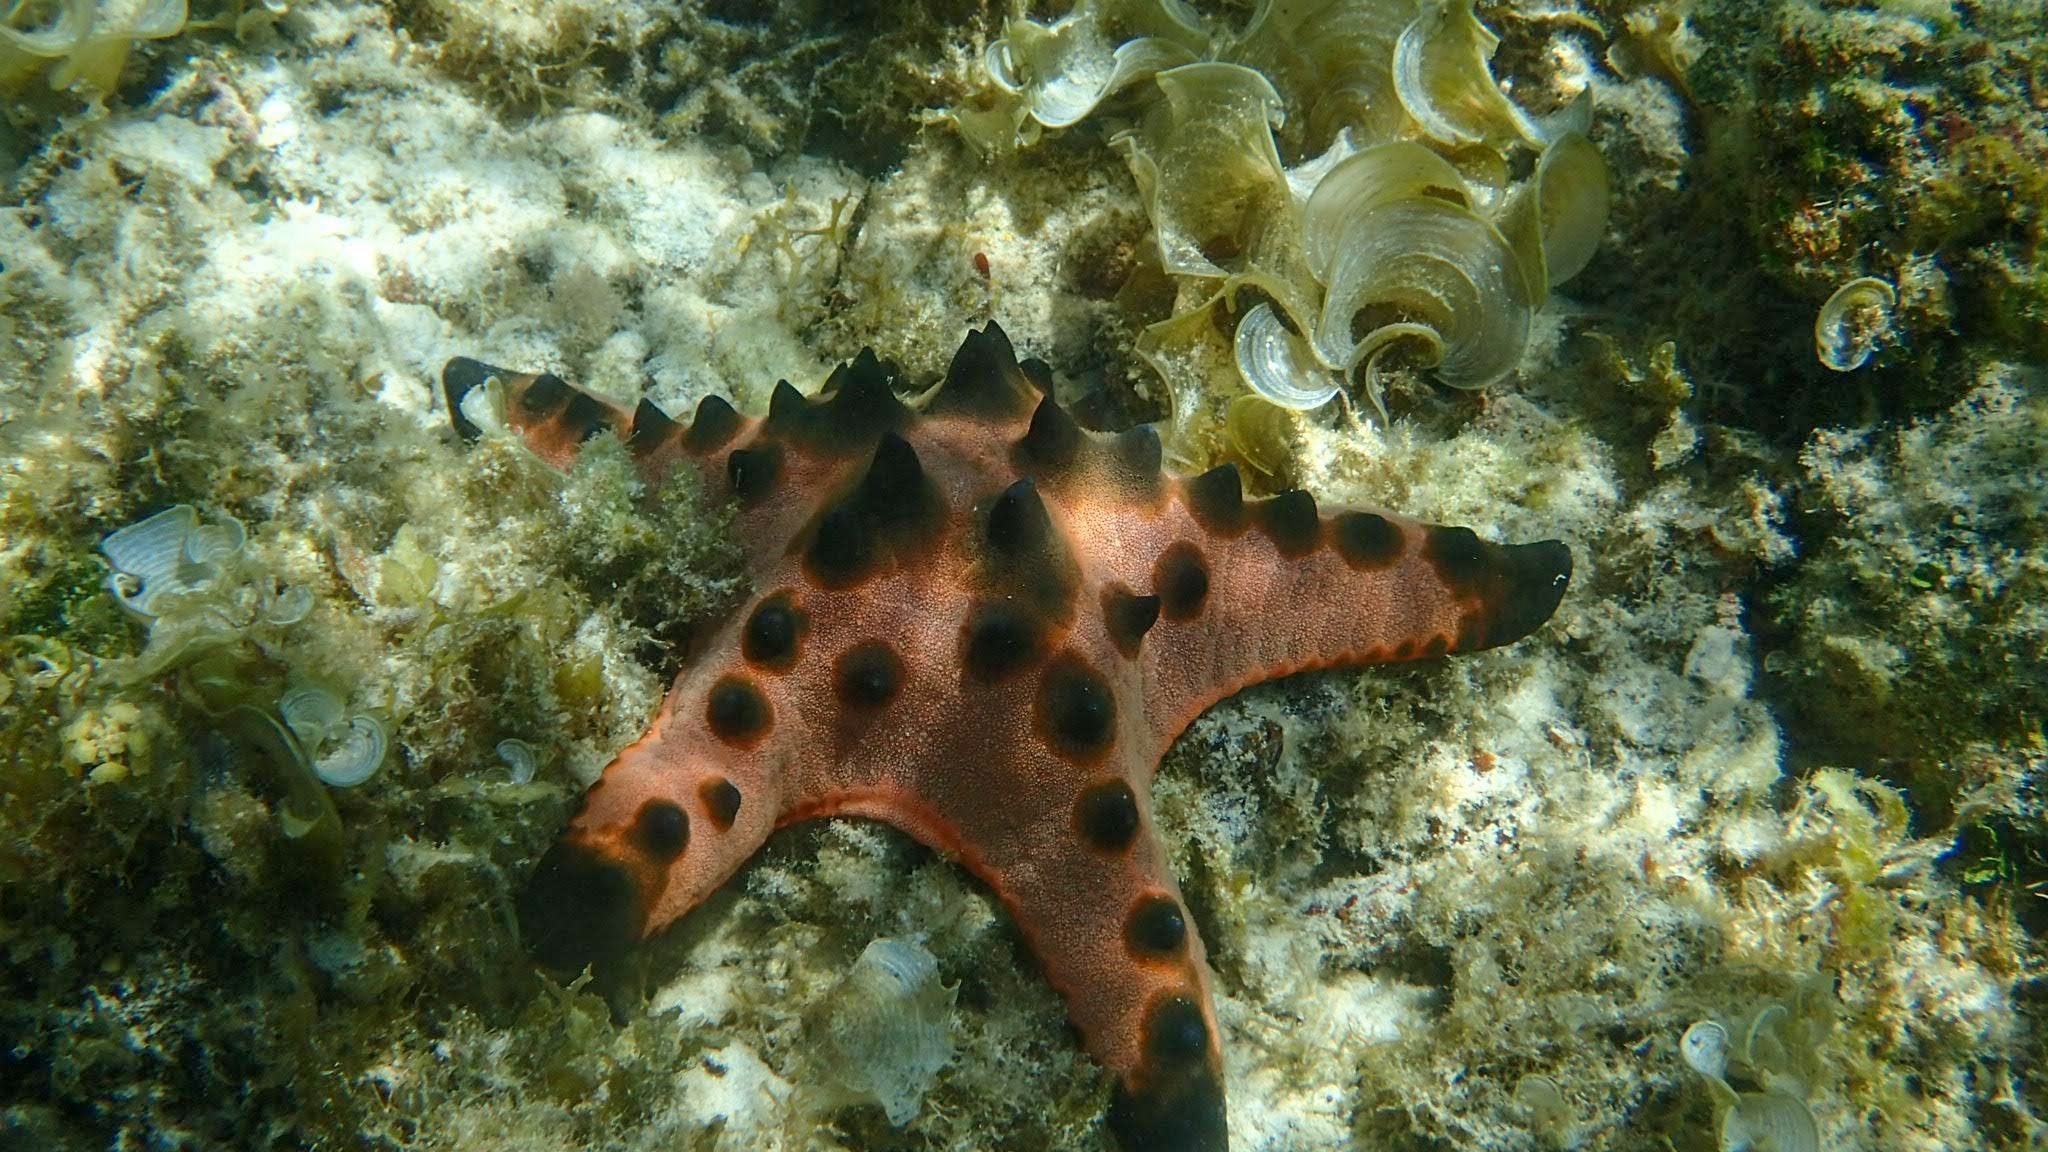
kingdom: Animalia
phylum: Echinodermata
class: Asteroidea
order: Valvatida
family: Oreasteridae
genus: Protoreaster
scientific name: Protoreaster nodosus
